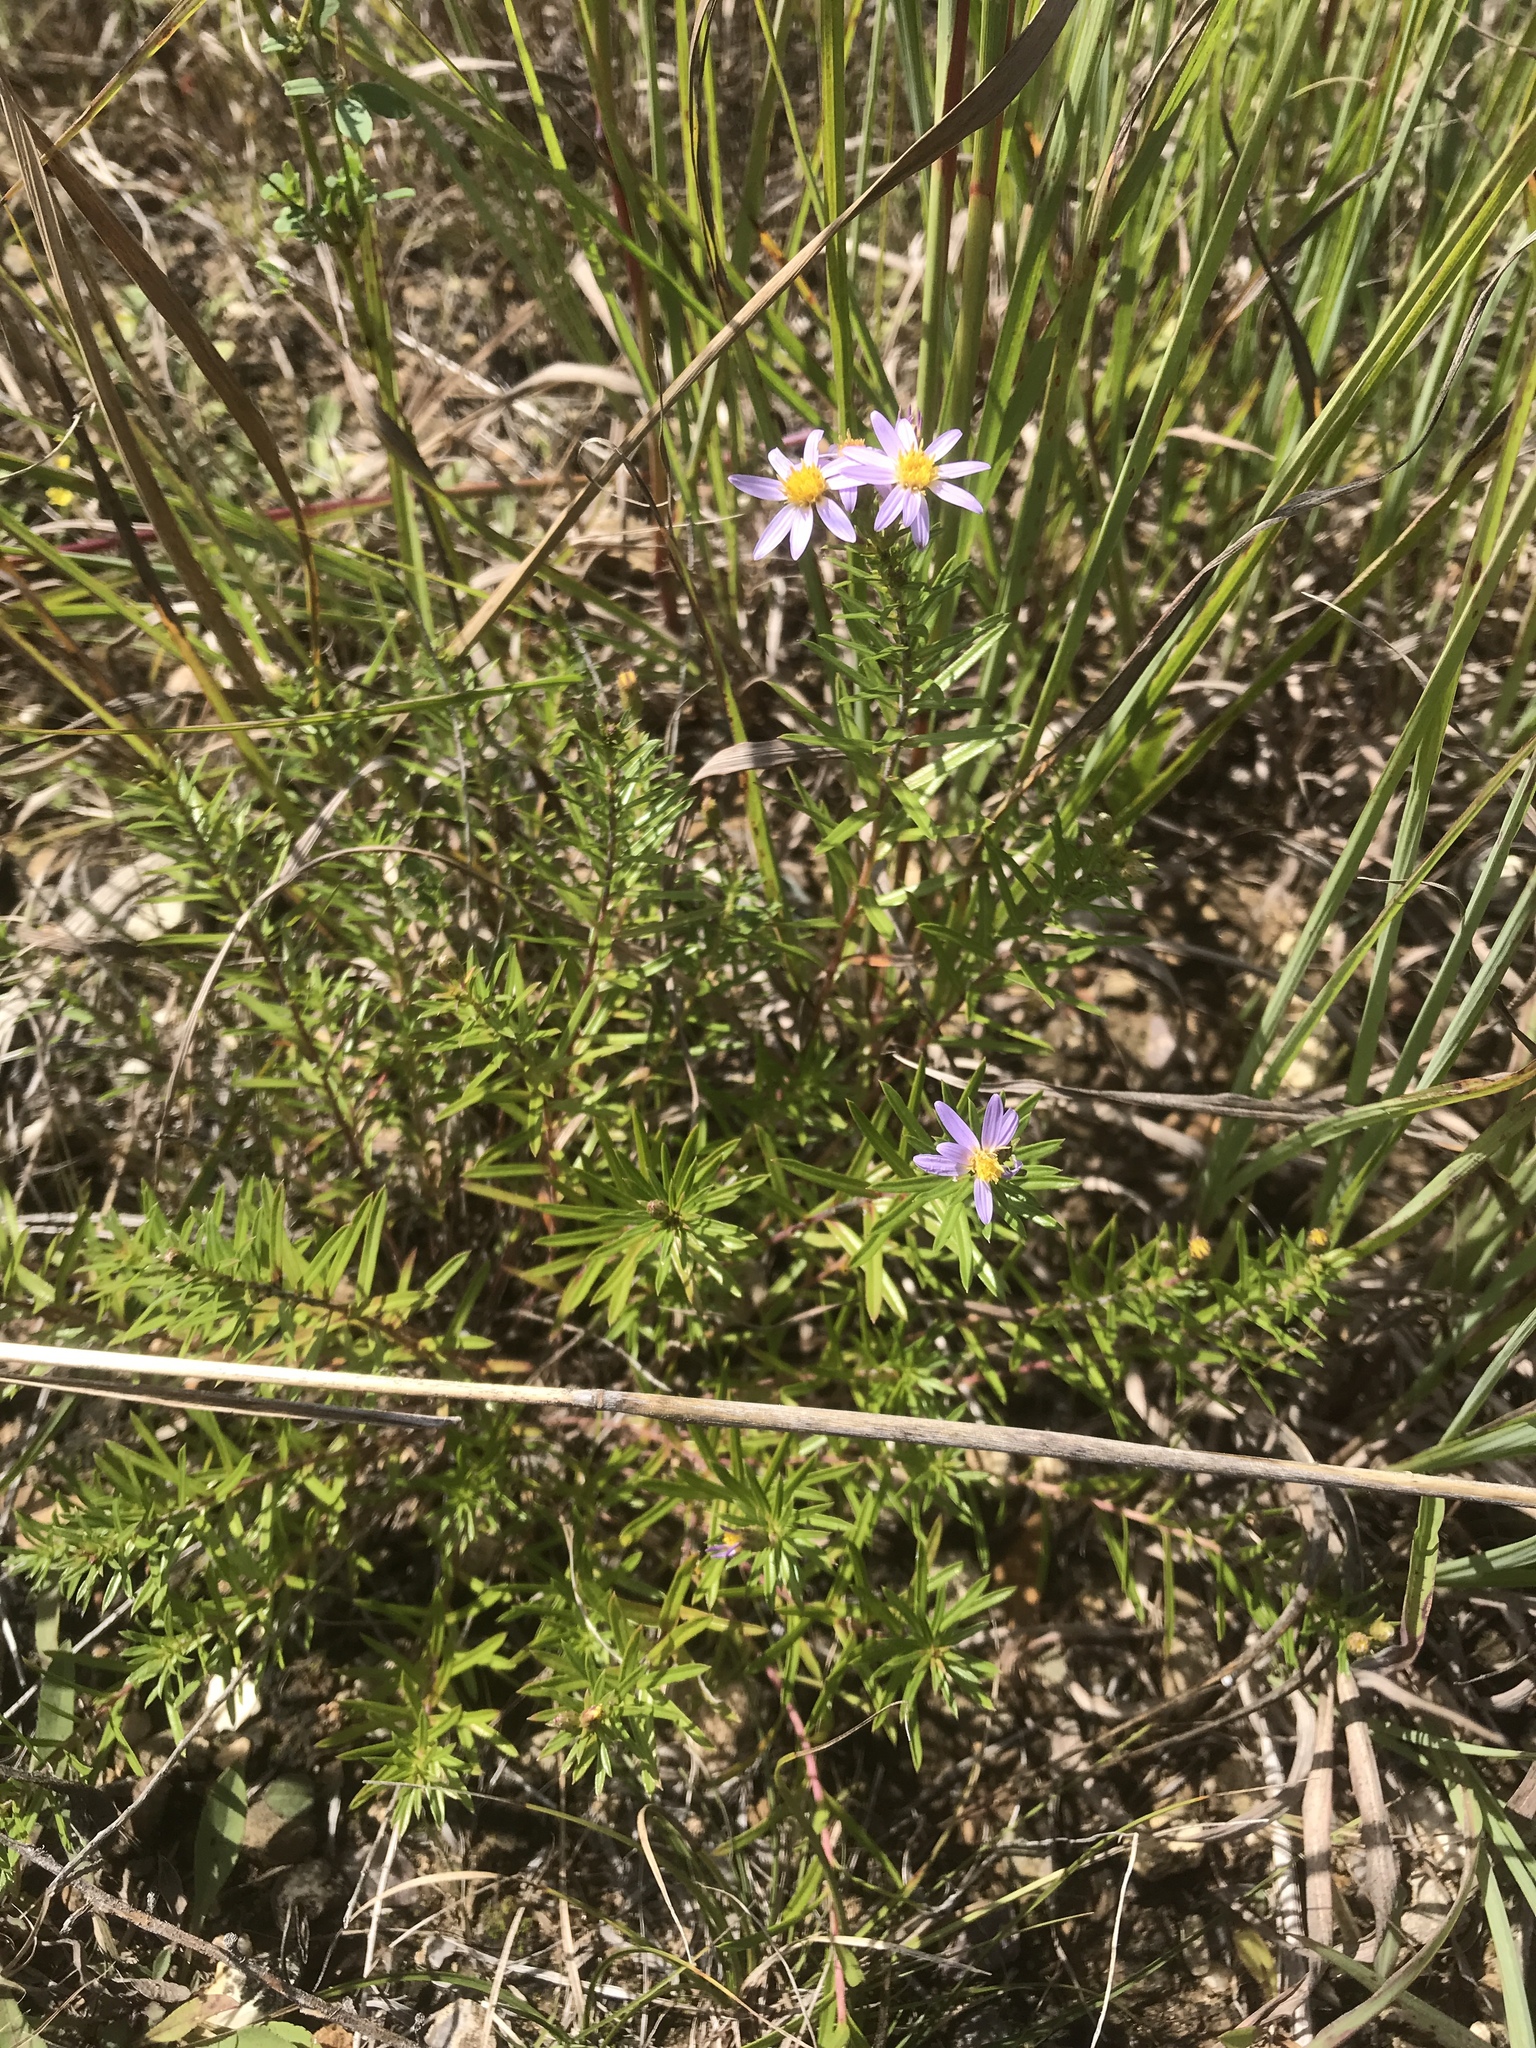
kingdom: Plantae
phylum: Tracheophyta
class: Magnoliopsida
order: Asterales
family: Asteraceae
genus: Ionactis
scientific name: Ionactis linariifolia
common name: Flax-leaf aster
